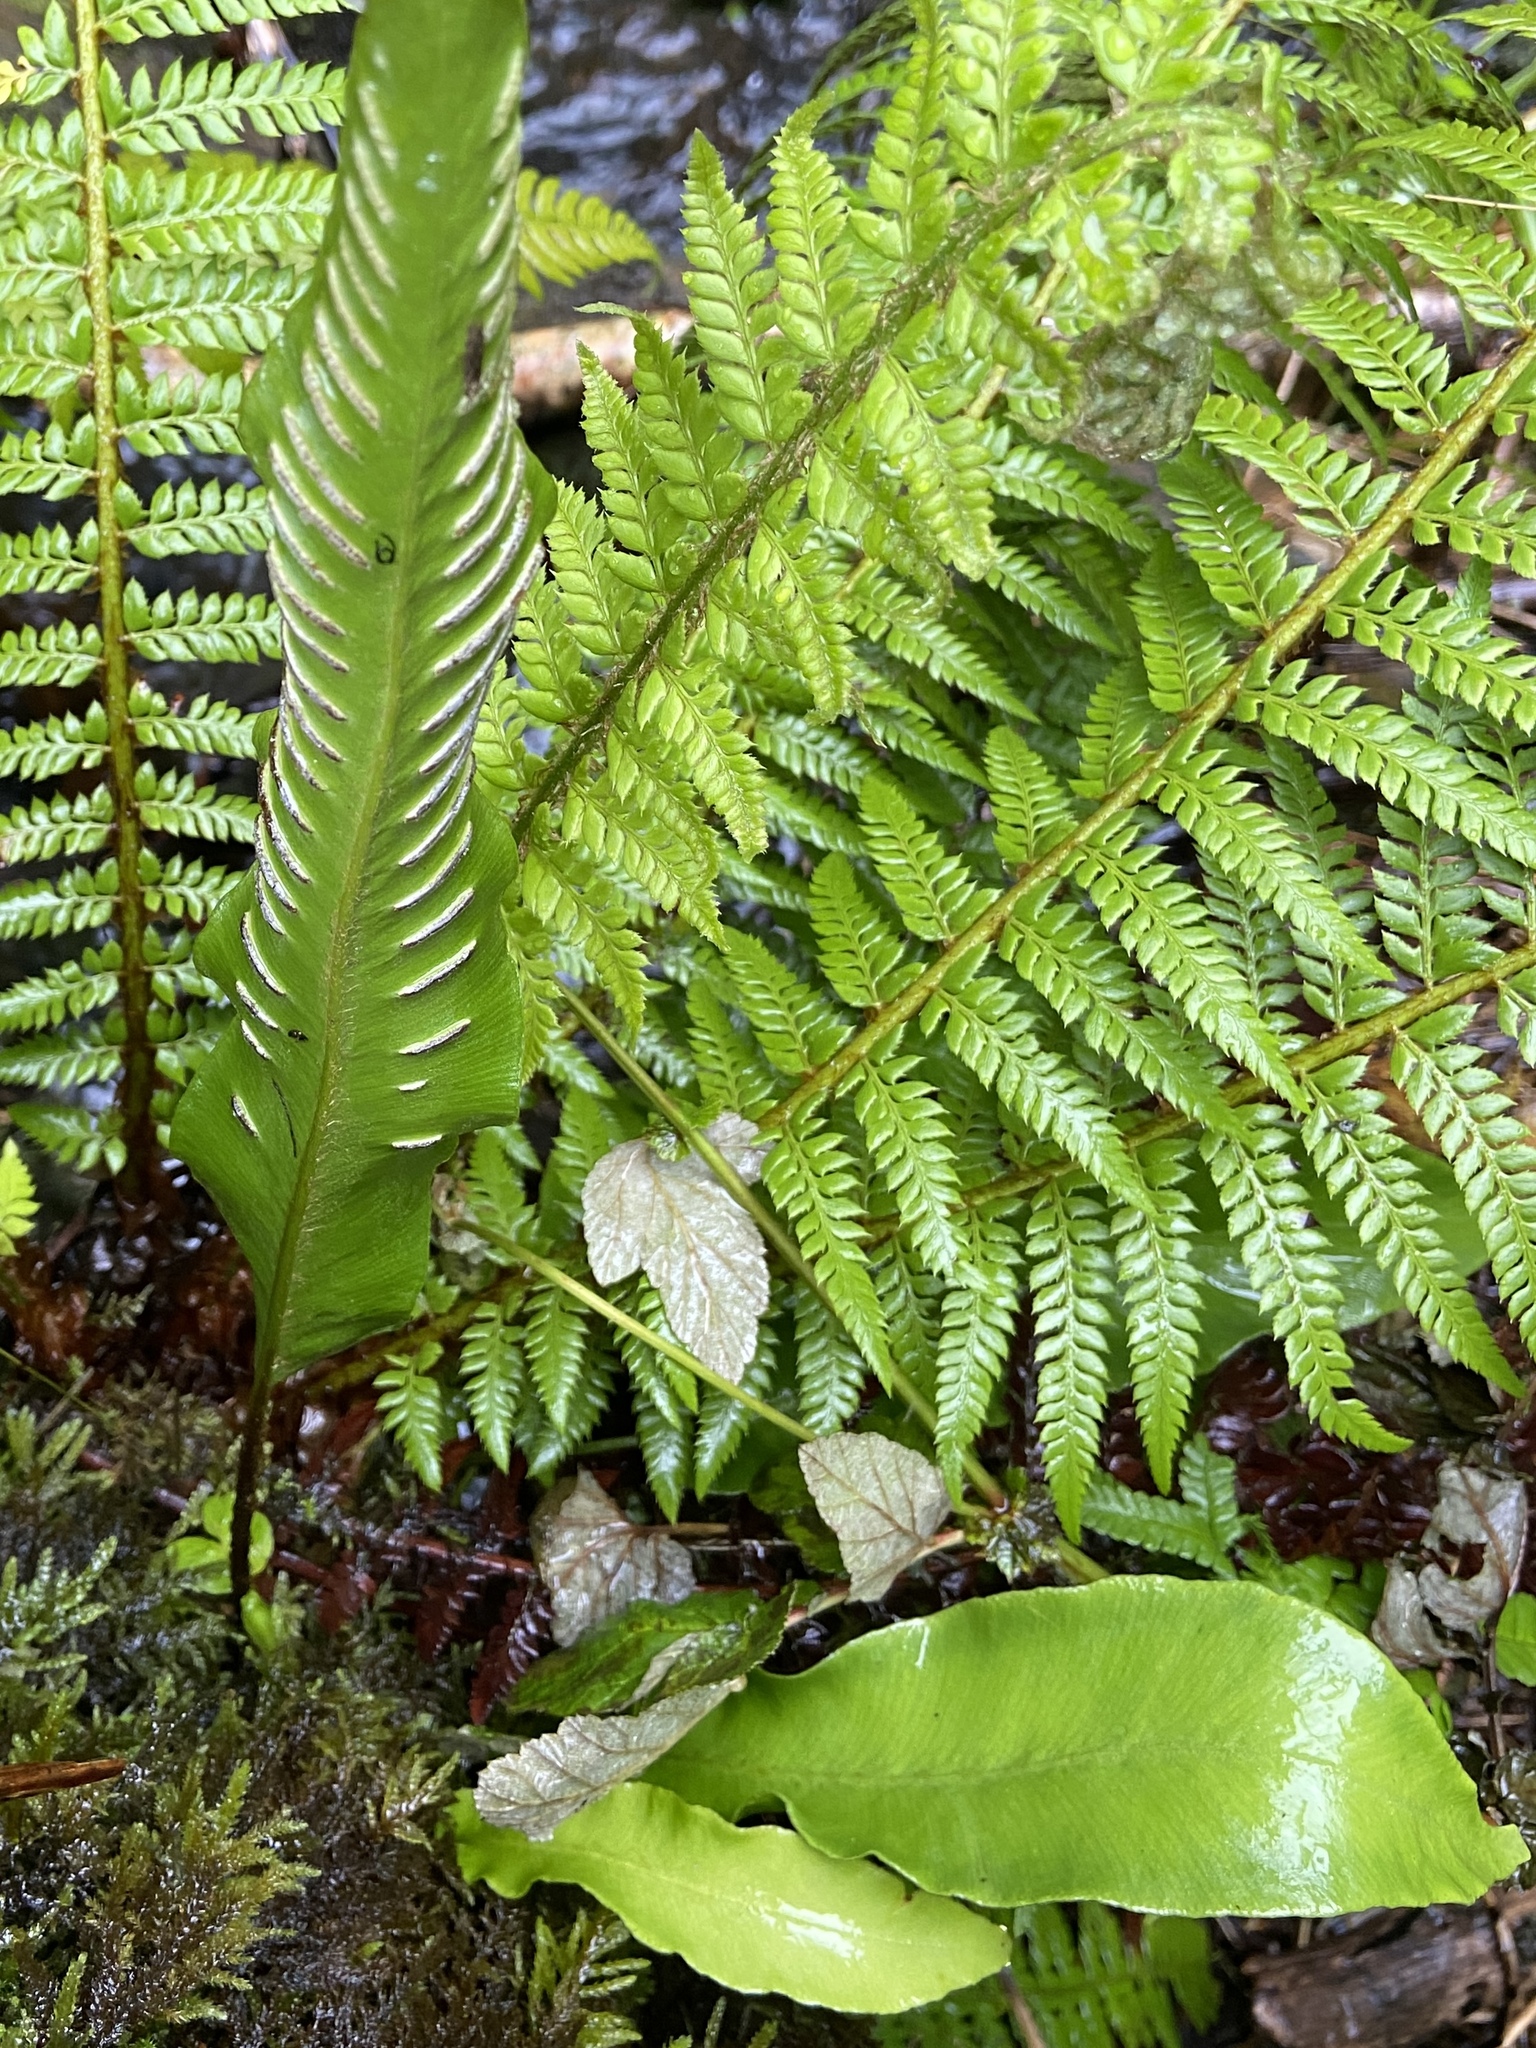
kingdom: Plantae
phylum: Tracheophyta
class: Polypodiopsida
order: Polypodiales
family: Aspleniaceae
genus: Asplenium
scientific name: Asplenium scolopendrium
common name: Hart's-tongue fern
